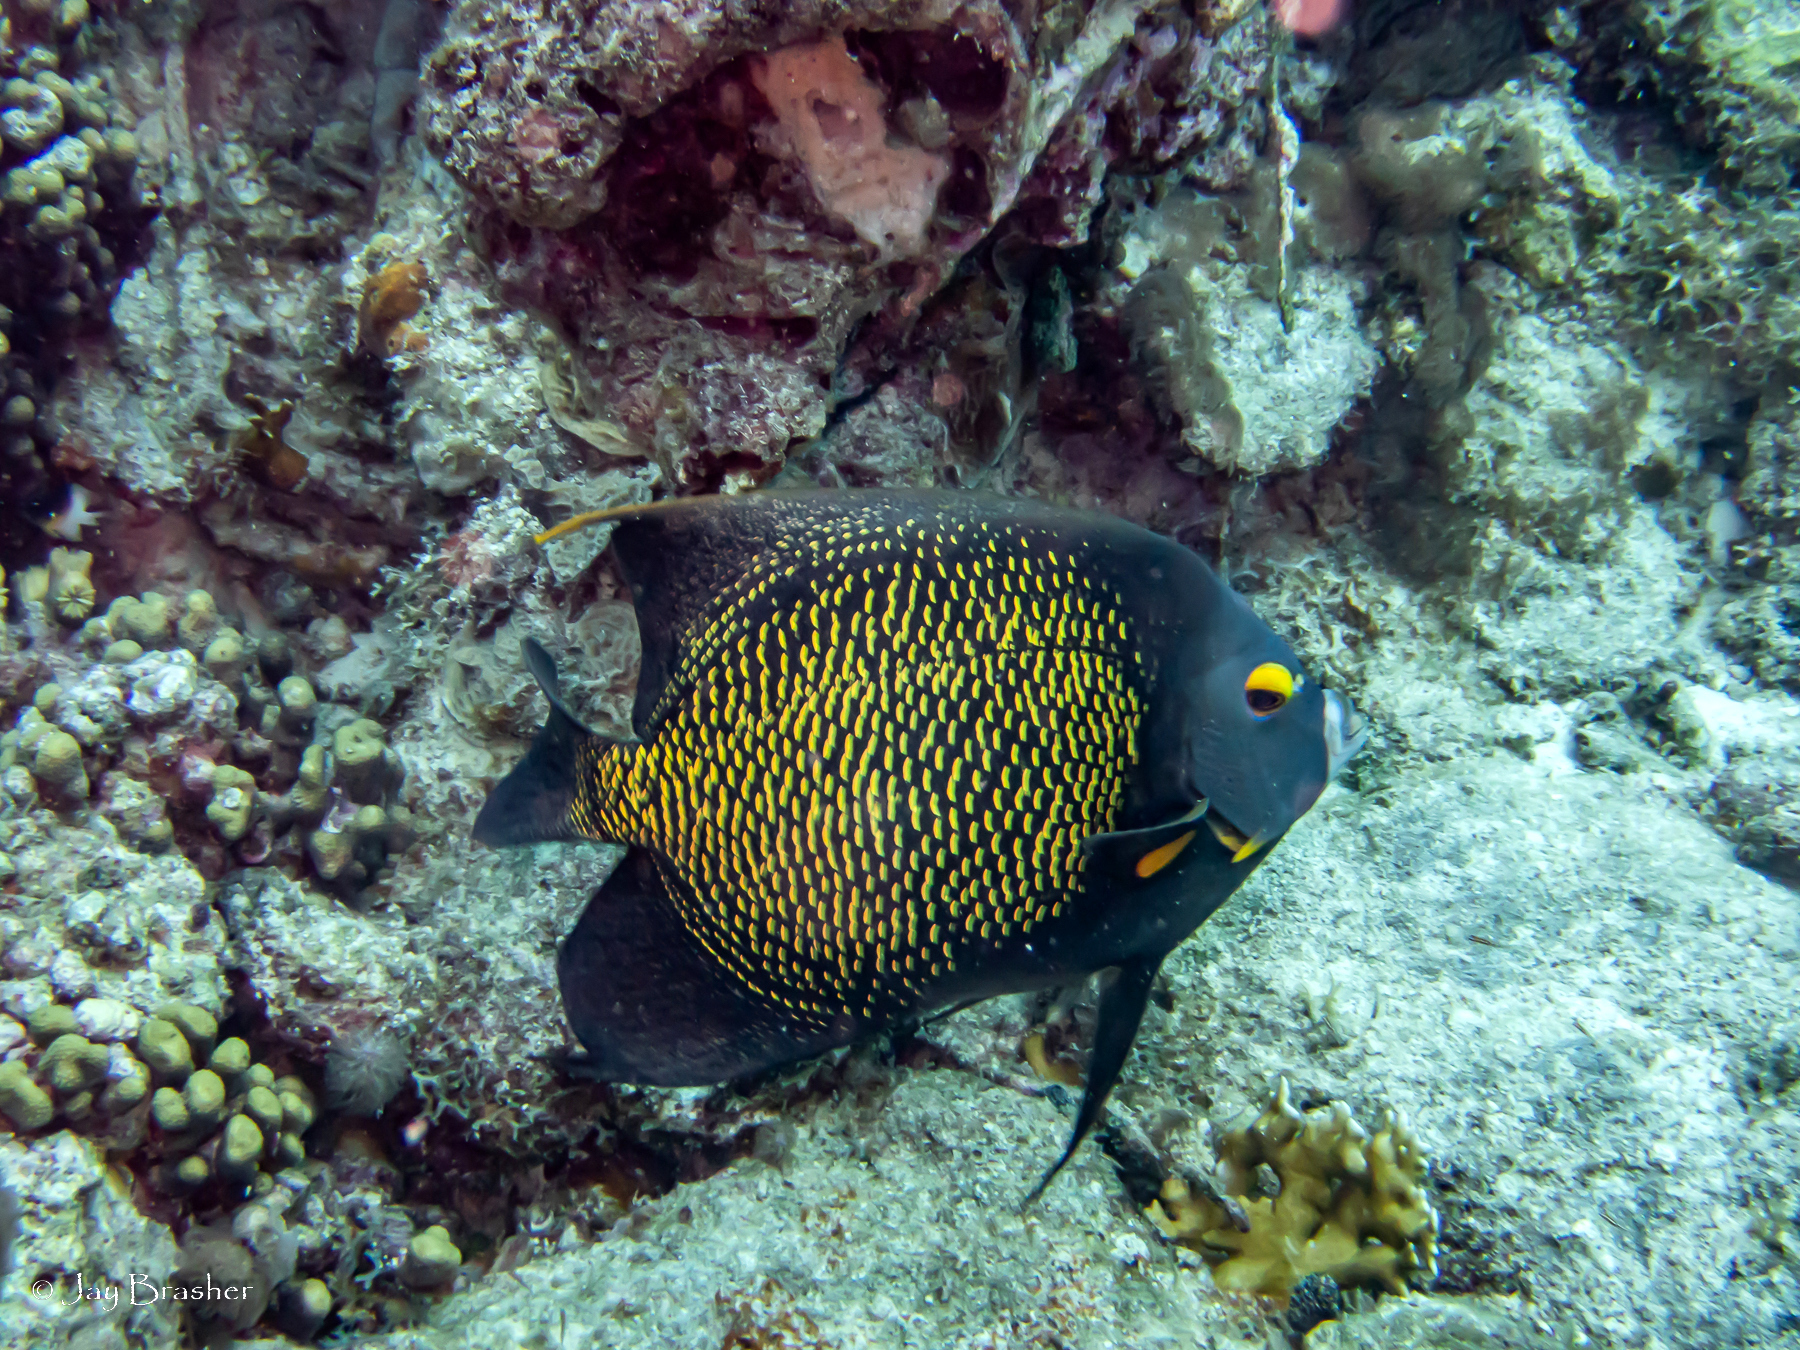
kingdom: Animalia
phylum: Chordata
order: Perciformes
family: Pomacanthidae
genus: Pomacanthus
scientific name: Pomacanthus paru
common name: French angelfish
